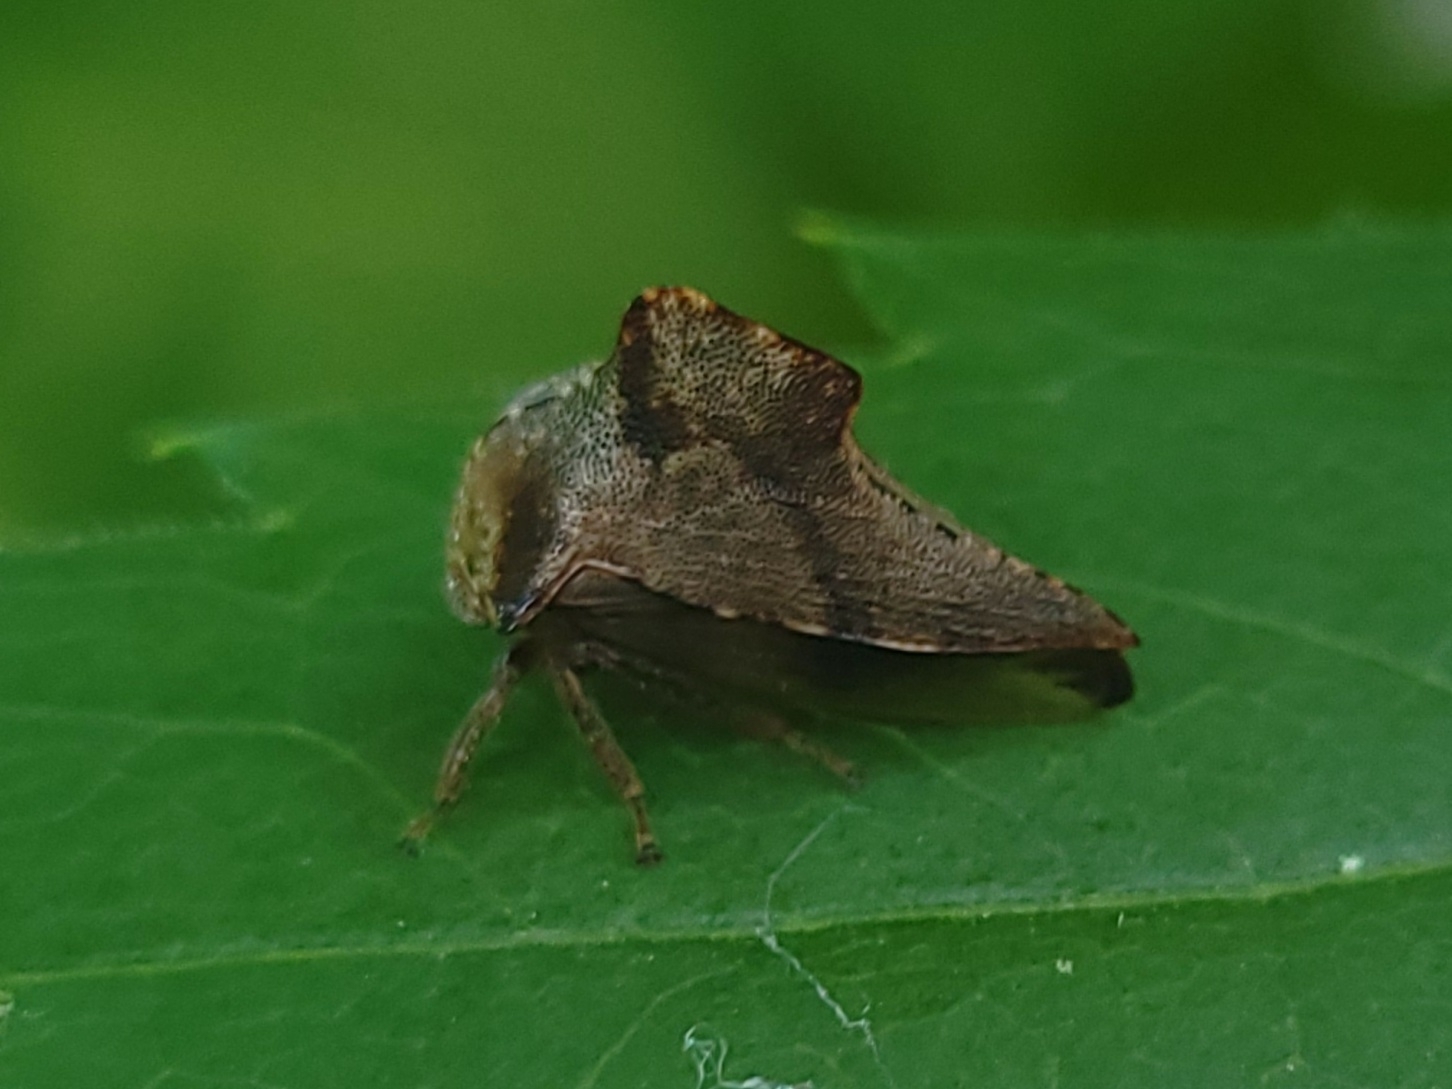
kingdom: Animalia
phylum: Arthropoda
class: Insecta
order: Hemiptera
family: Membracidae
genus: Telamona
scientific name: Telamona ampelopsidis
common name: Virginia creeper treehopper
